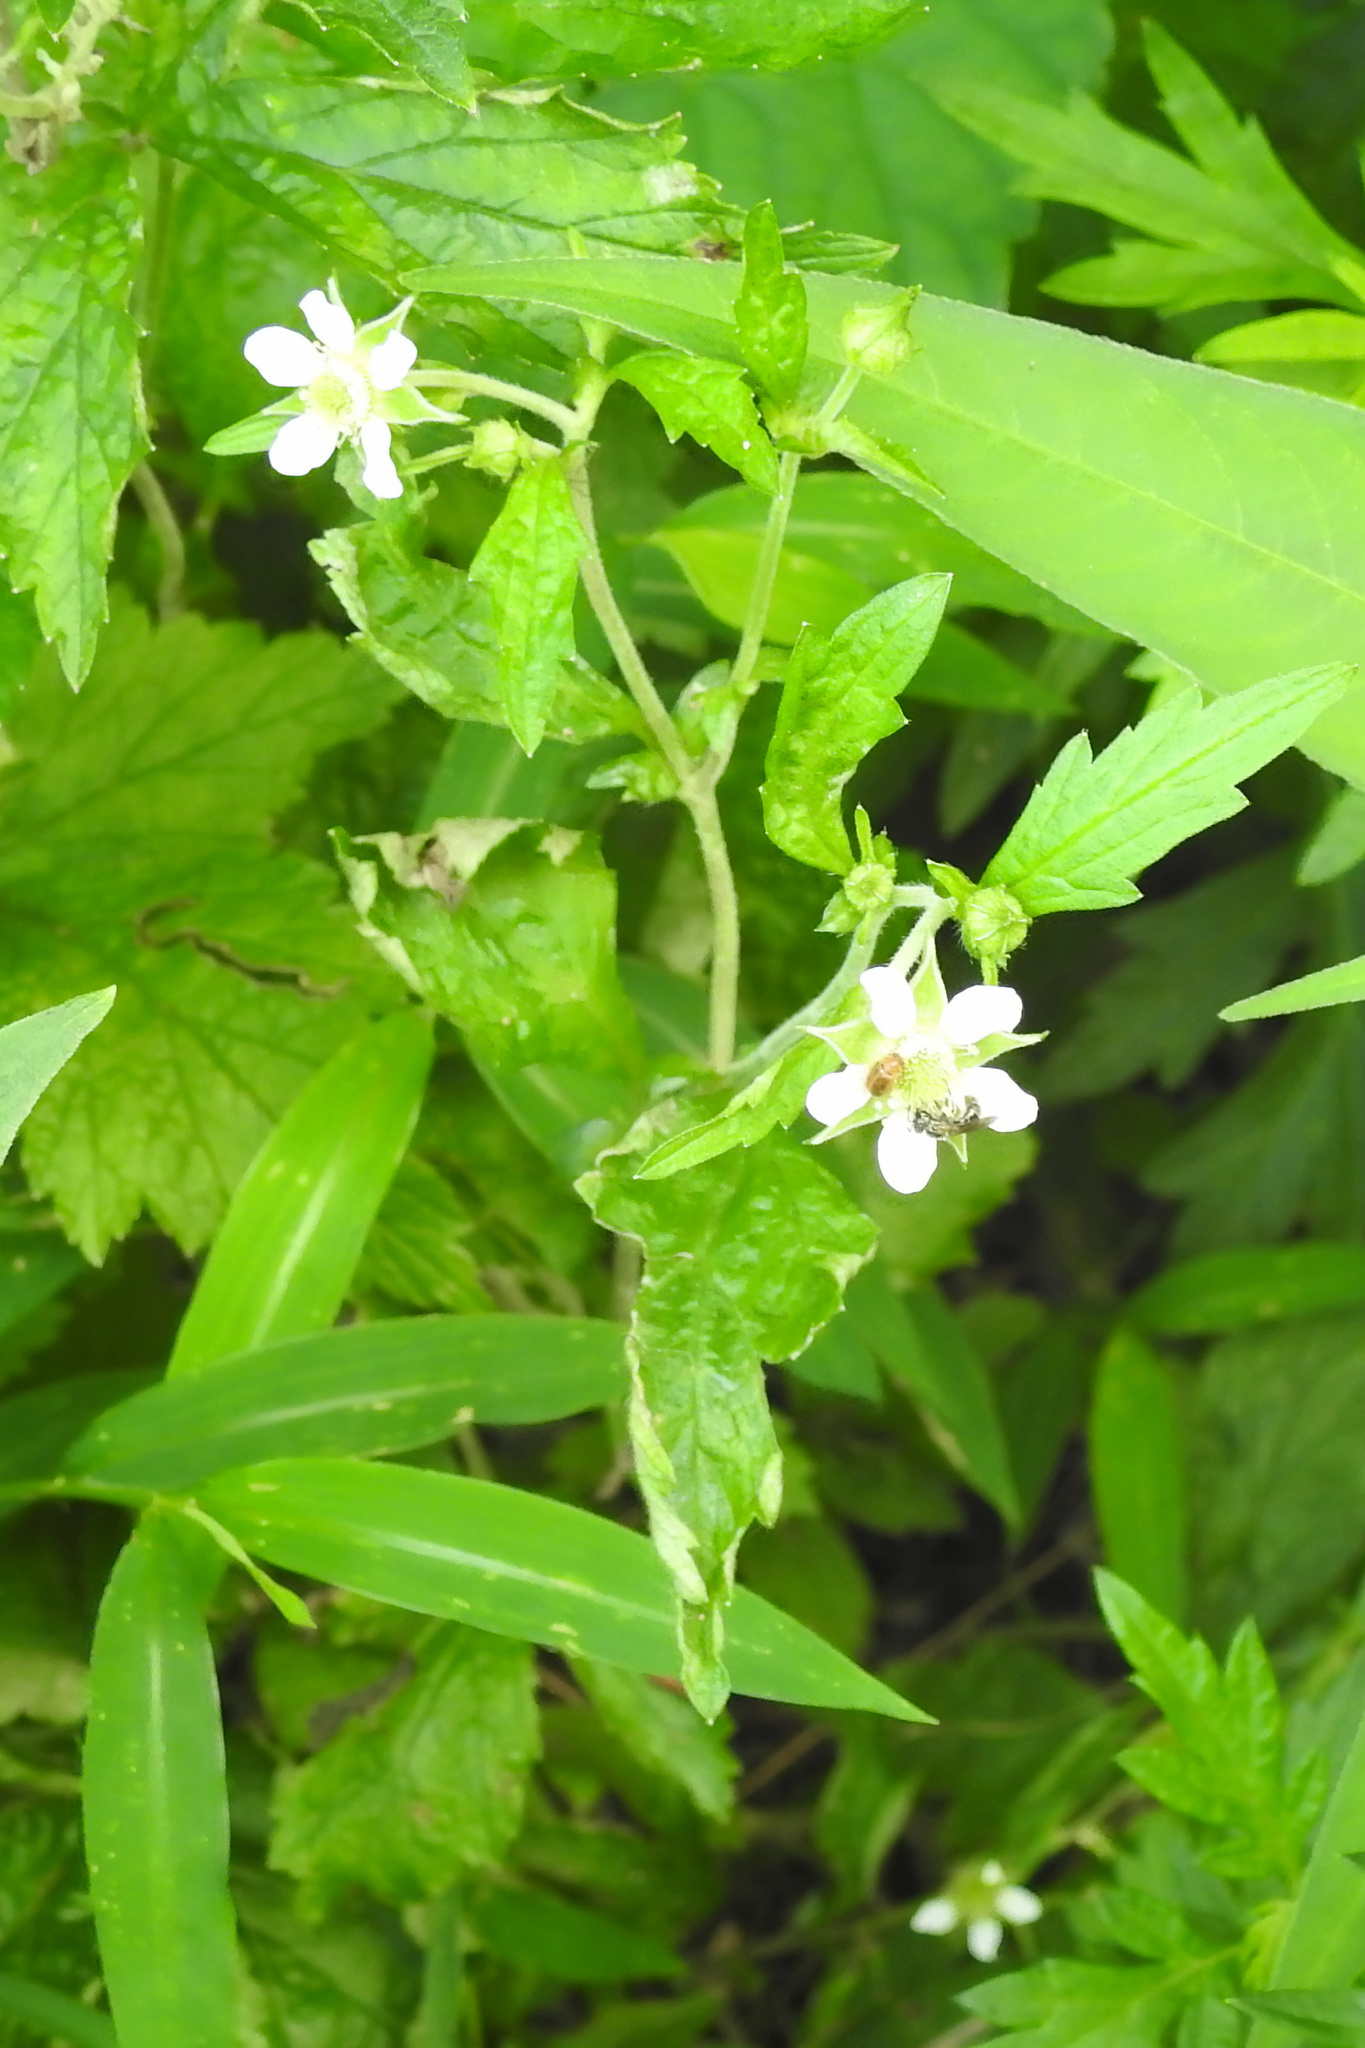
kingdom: Plantae
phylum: Tracheophyta
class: Magnoliopsida
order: Rosales
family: Rosaceae
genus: Geum
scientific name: Geum canadense
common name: White avens
